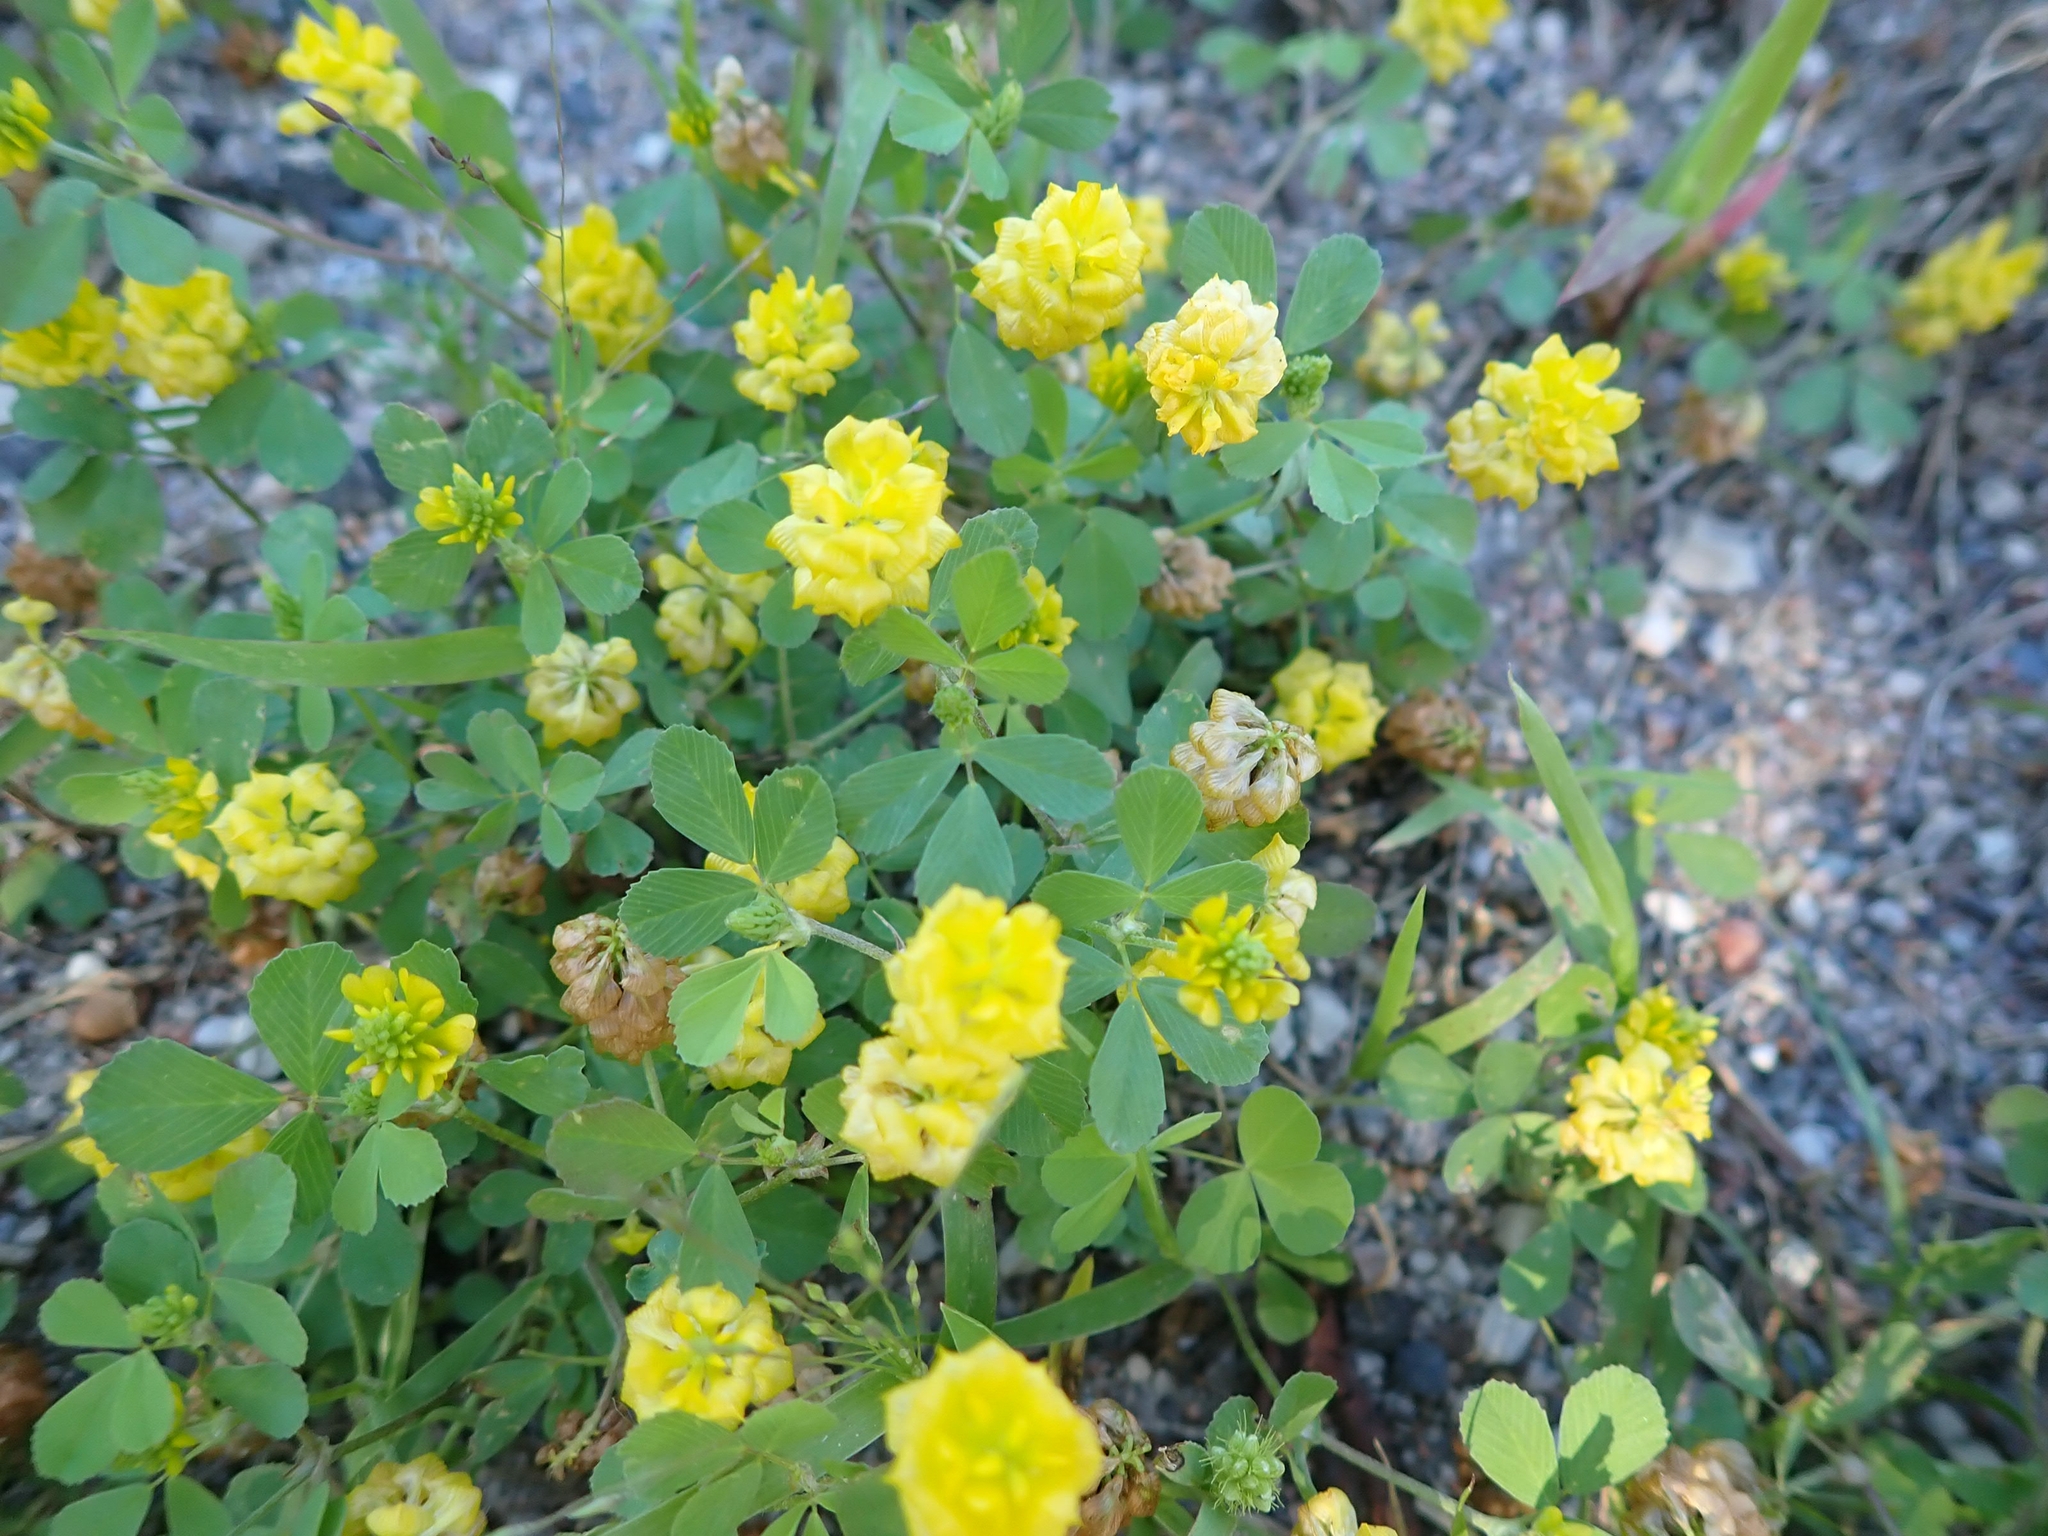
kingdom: Plantae
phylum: Tracheophyta
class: Magnoliopsida
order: Fabales
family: Fabaceae
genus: Trifolium
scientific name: Trifolium campestre
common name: Field clover
